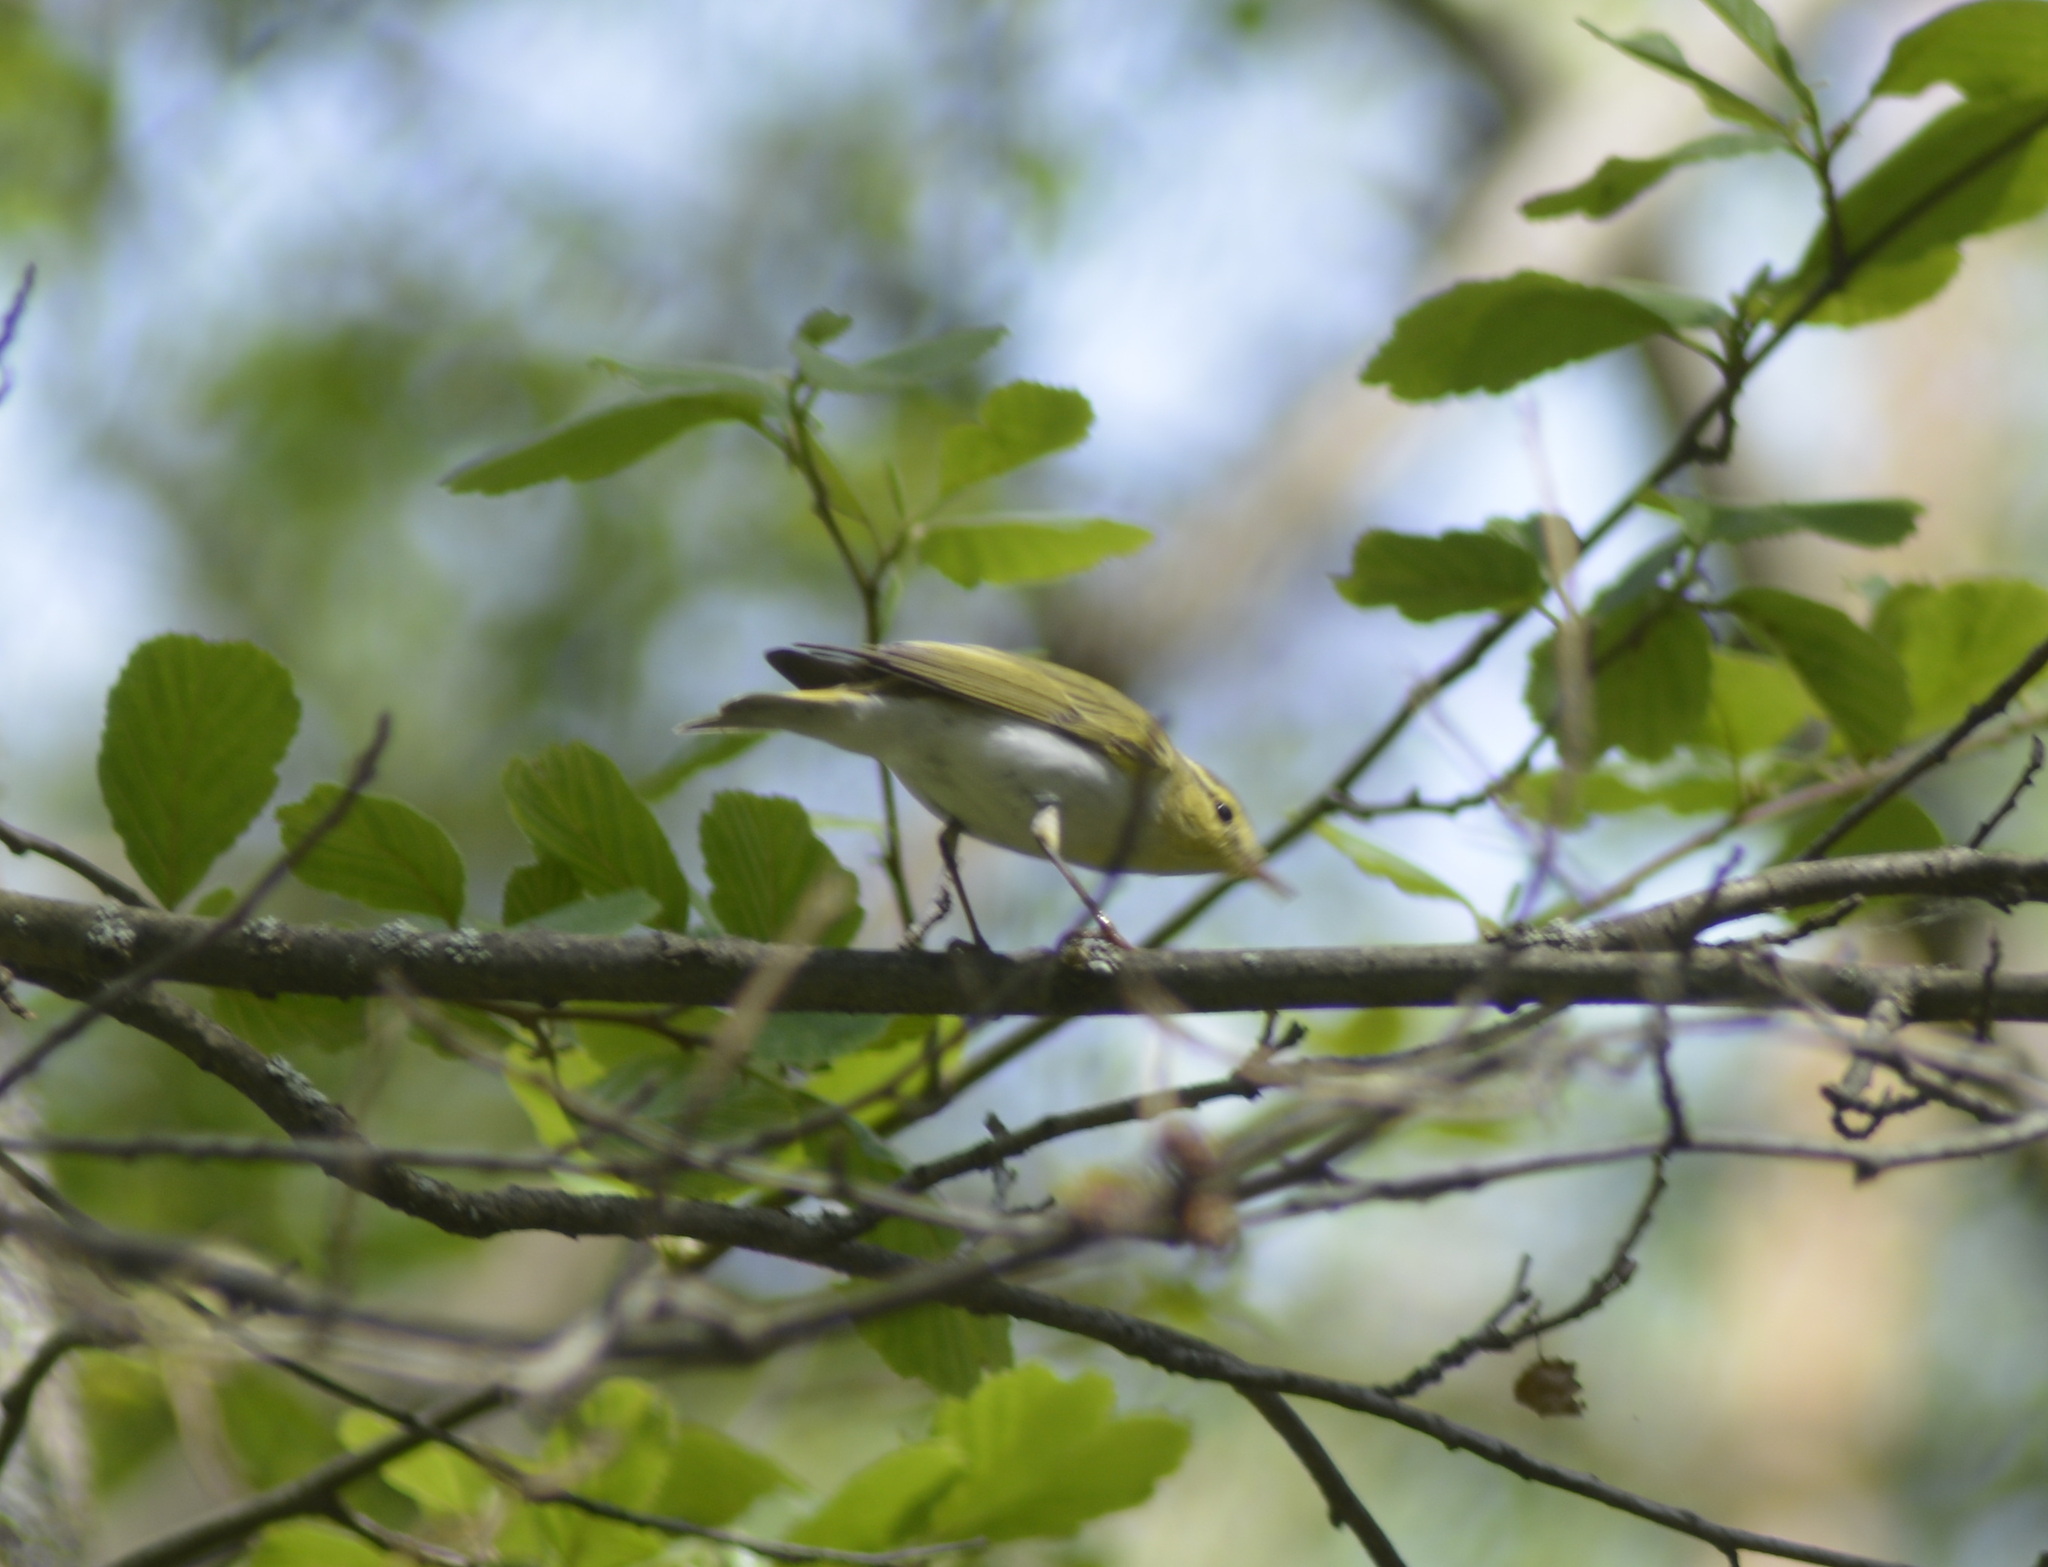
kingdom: Animalia
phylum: Chordata
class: Aves
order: Passeriformes
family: Phylloscopidae
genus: Phylloscopus
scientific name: Phylloscopus sibillatrix
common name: Wood warbler
